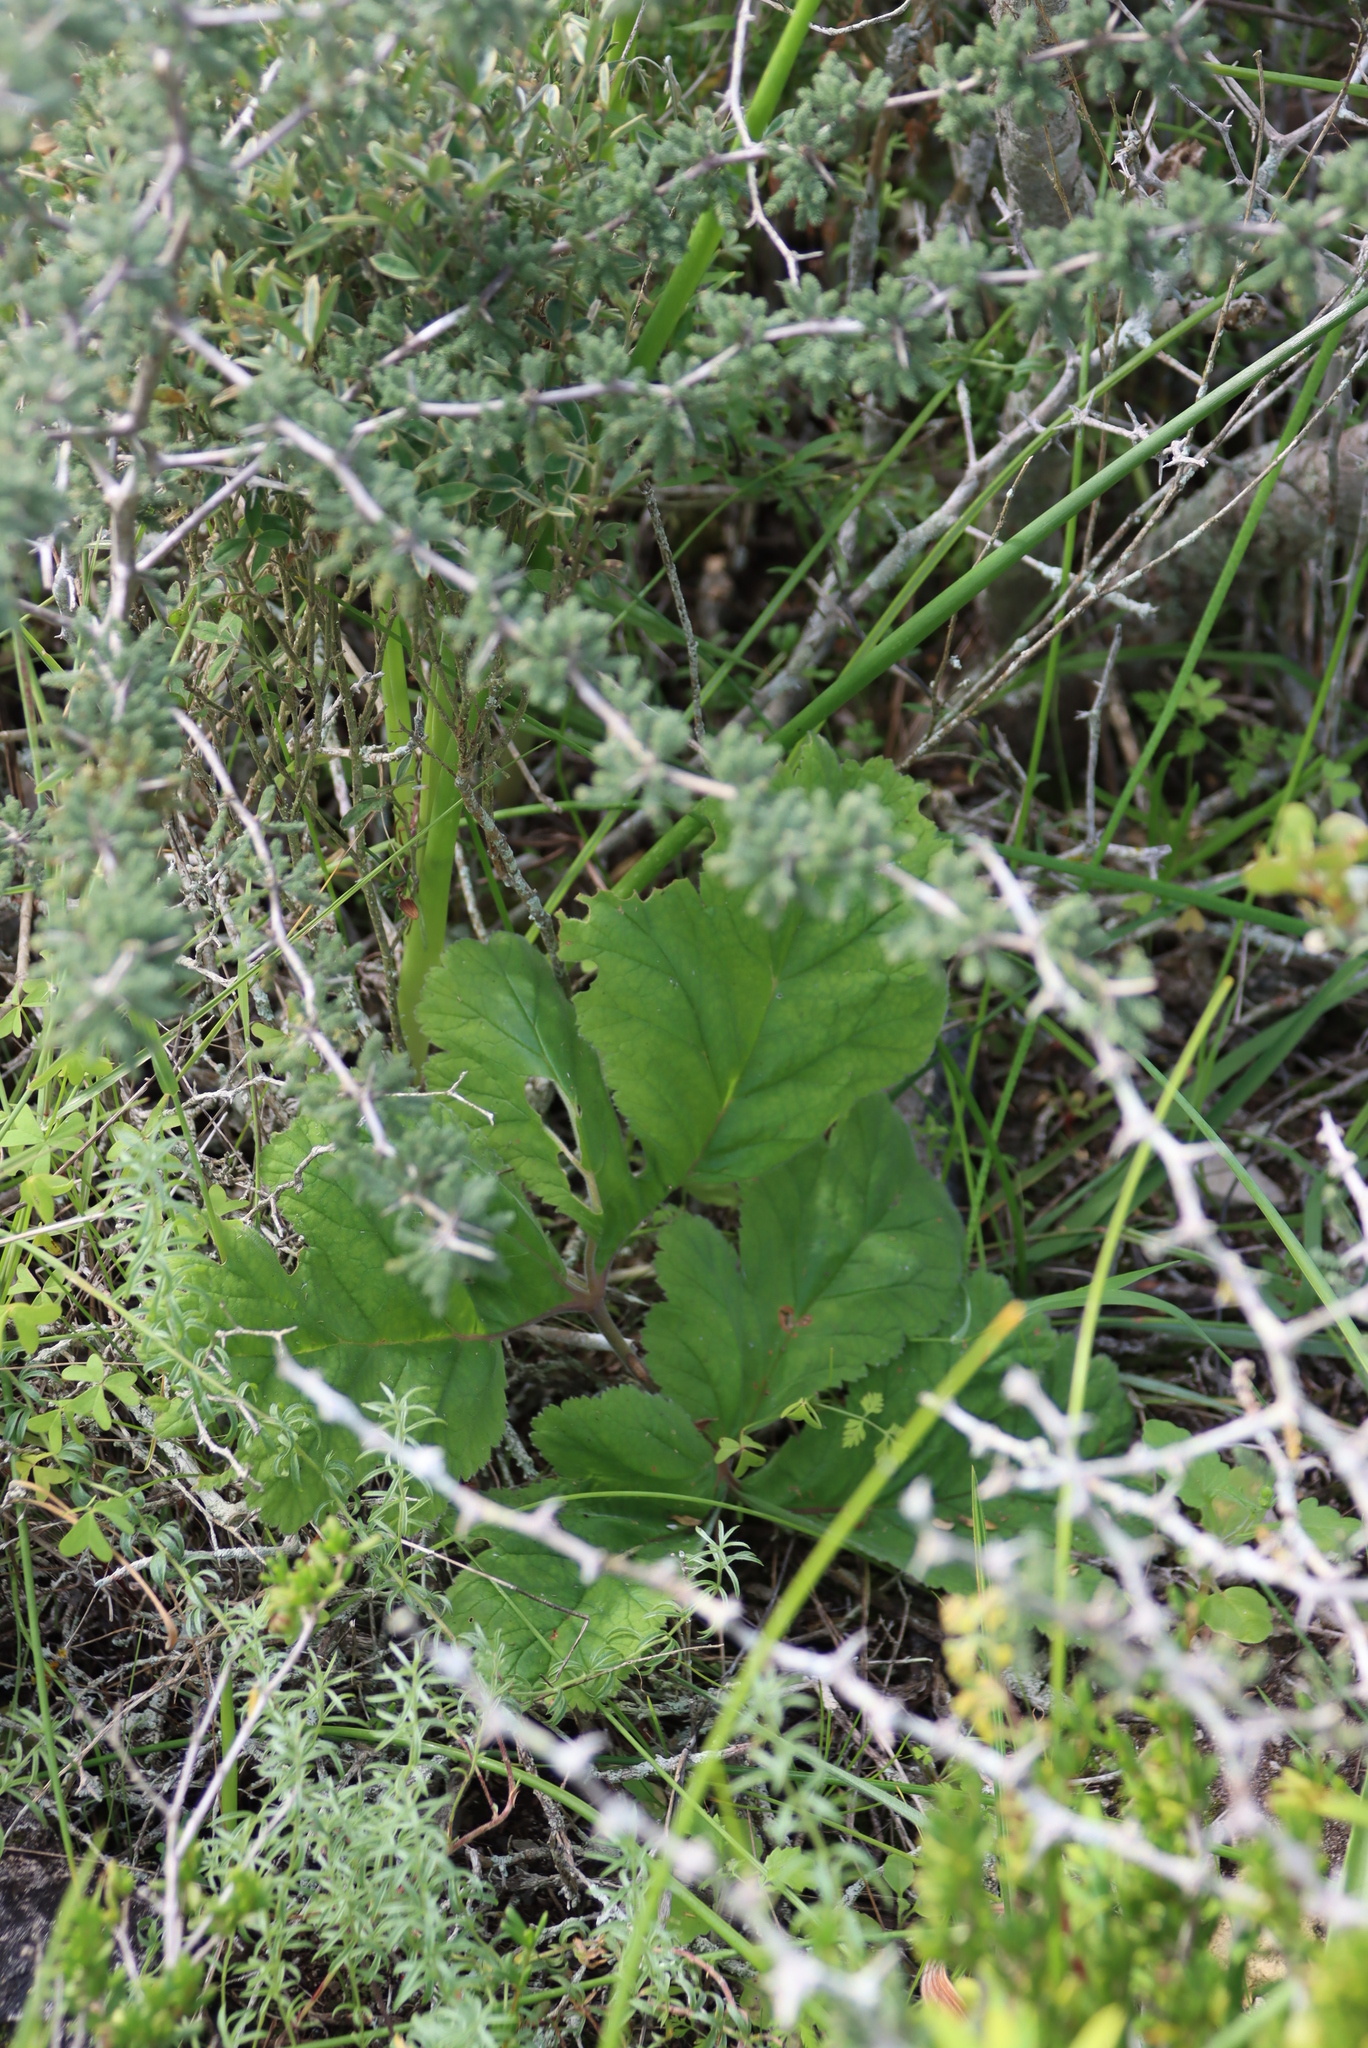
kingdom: Plantae
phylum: Tracheophyta
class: Magnoliopsida
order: Geraniales
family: Geraniaceae
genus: Pelargonium
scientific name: Pelargonium lobatum
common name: Vine-leaf pelargonium
